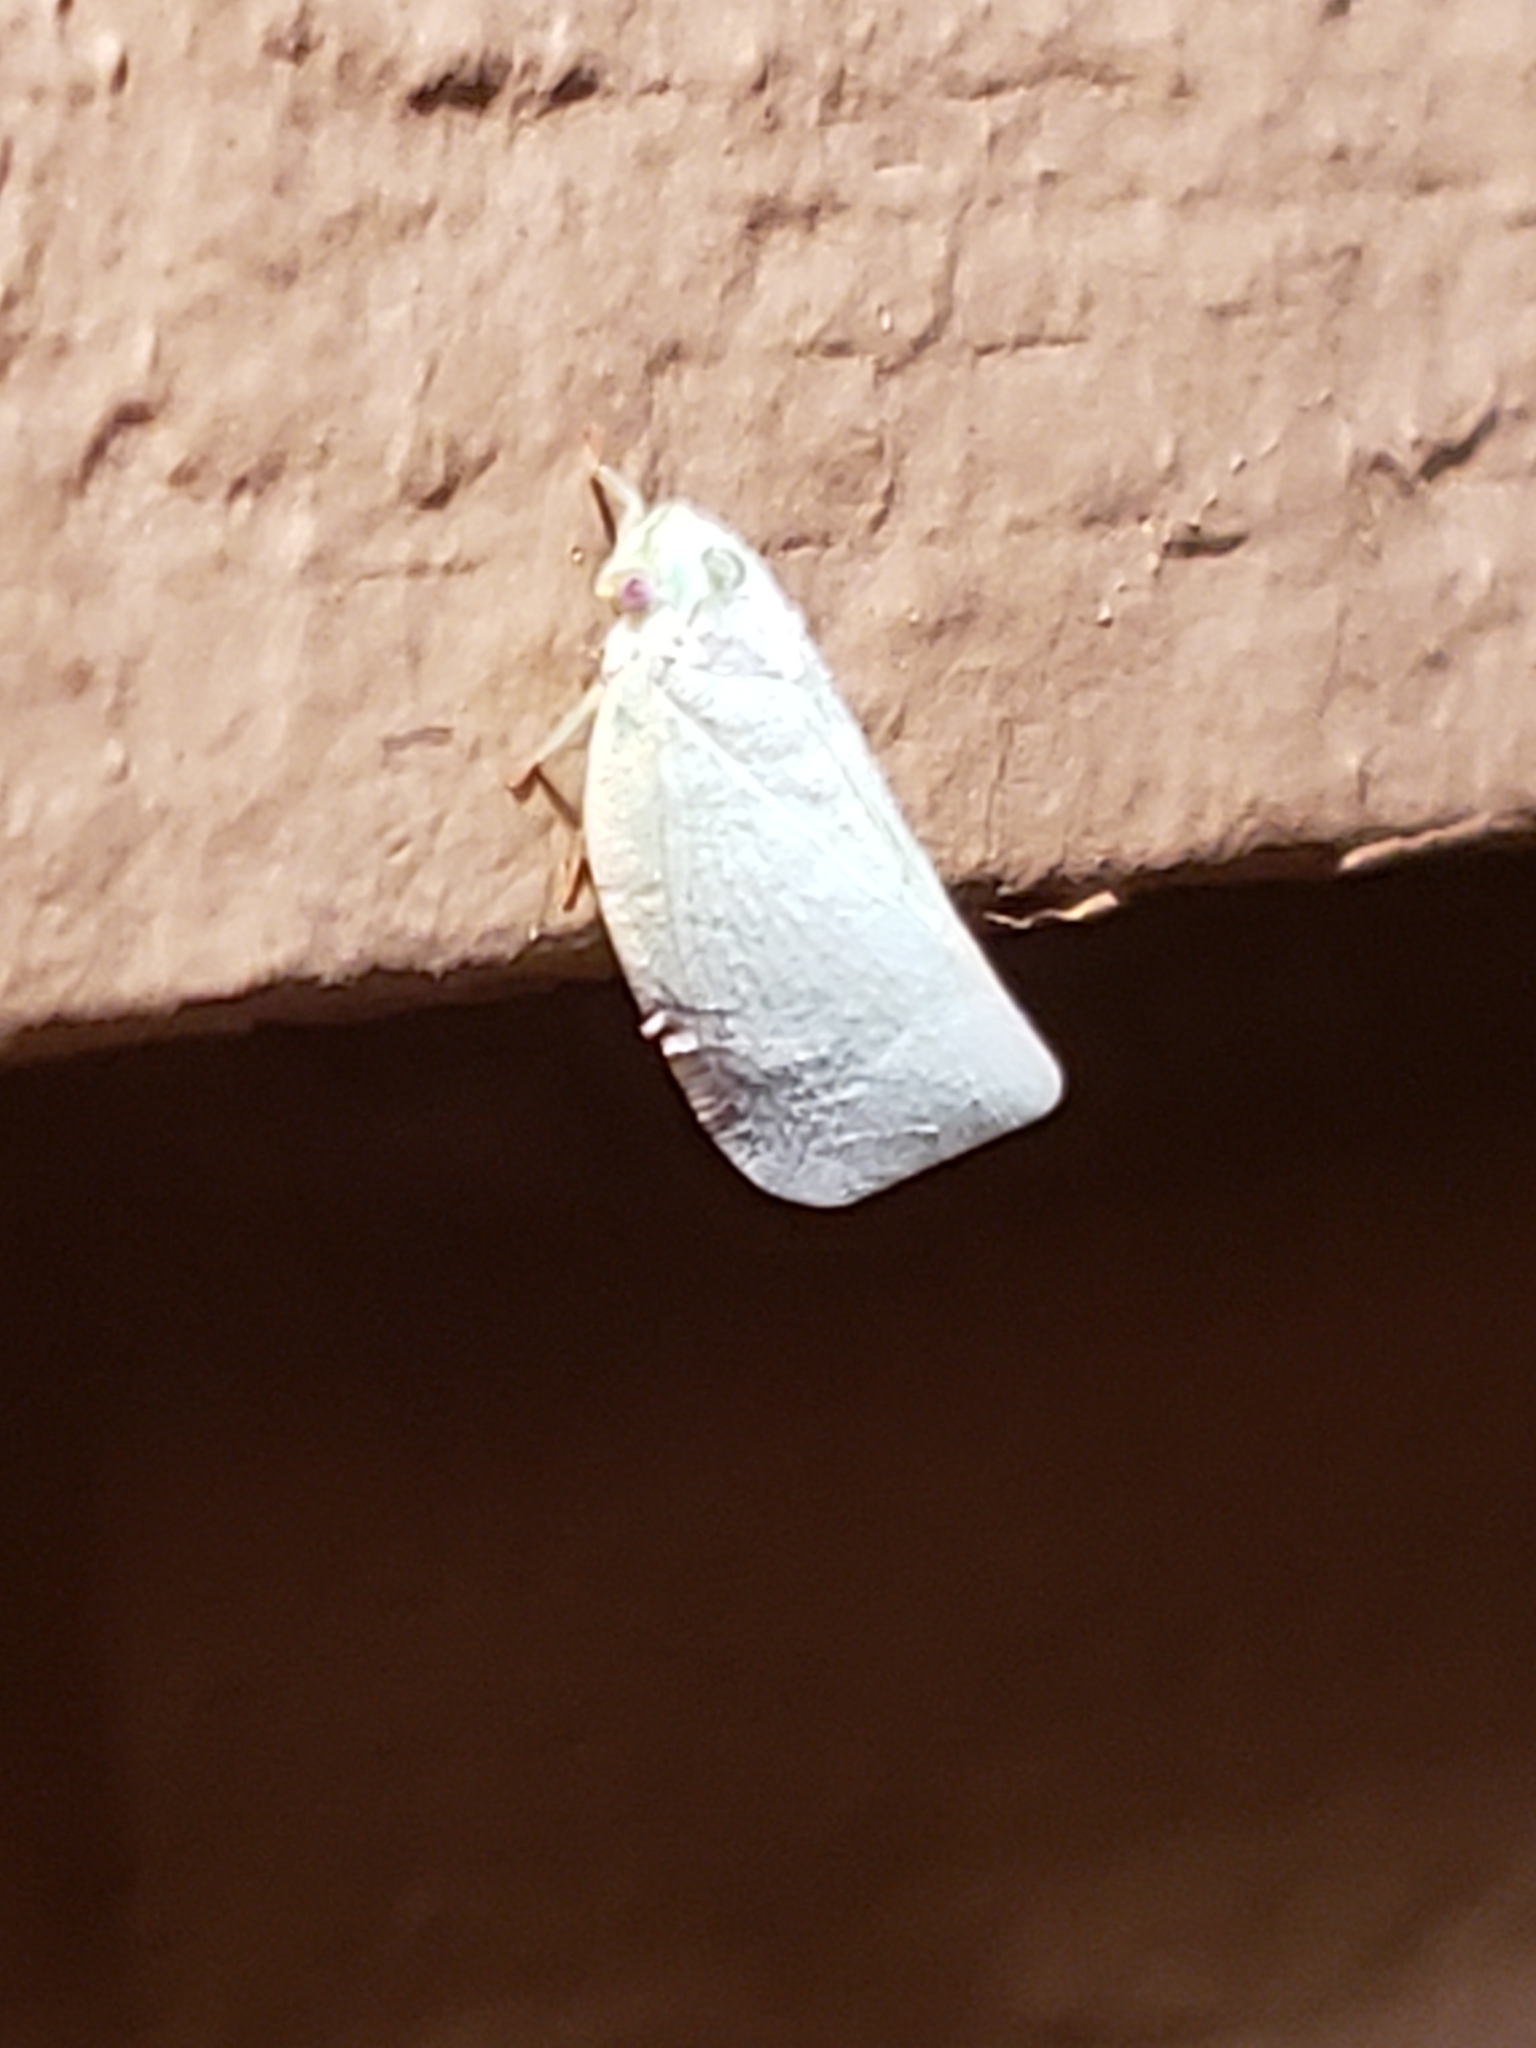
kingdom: Animalia
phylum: Arthropoda
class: Insecta
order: Hemiptera
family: Flatidae
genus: Flatormenis
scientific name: Flatormenis proxima
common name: Northern flatid planthopper
